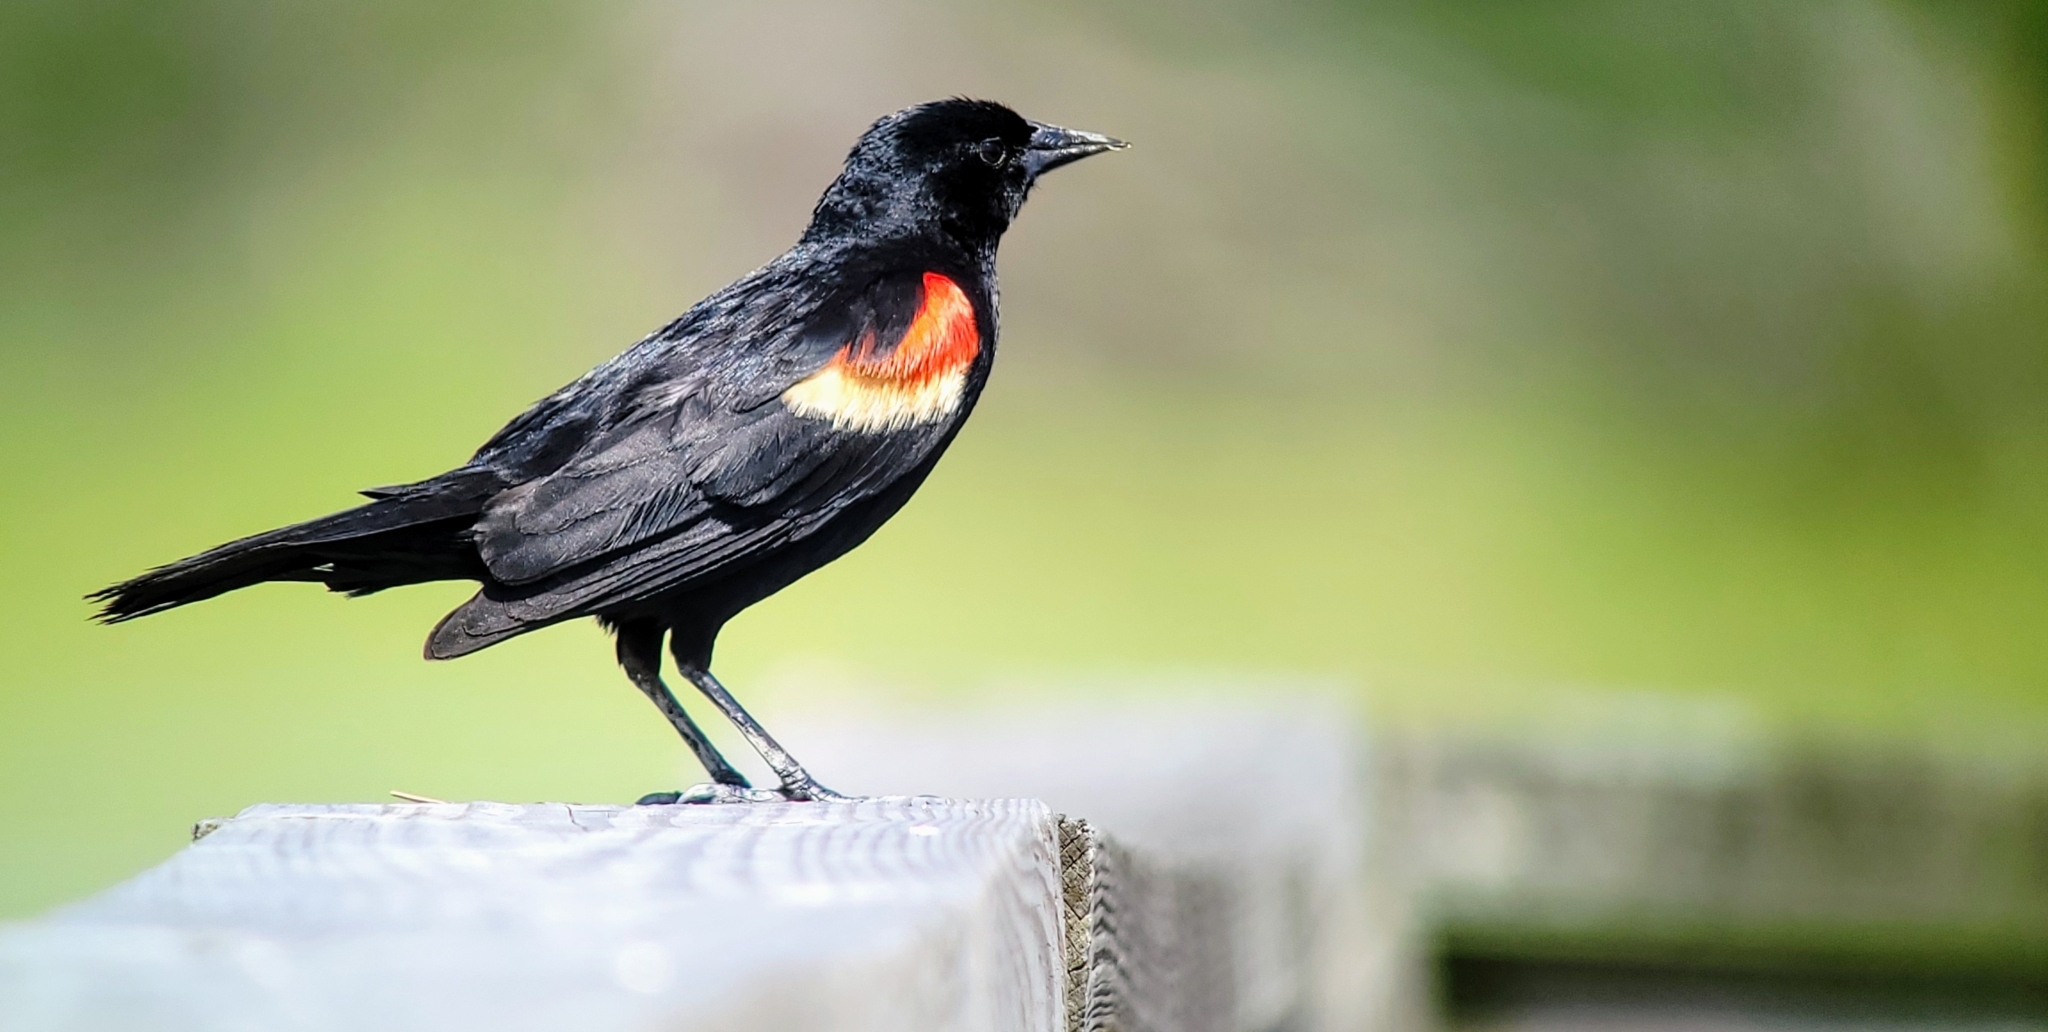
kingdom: Animalia
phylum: Chordata
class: Aves
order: Passeriformes
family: Icteridae
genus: Agelaius
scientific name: Agelaius phoeniceus
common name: Red-winged blackbird
